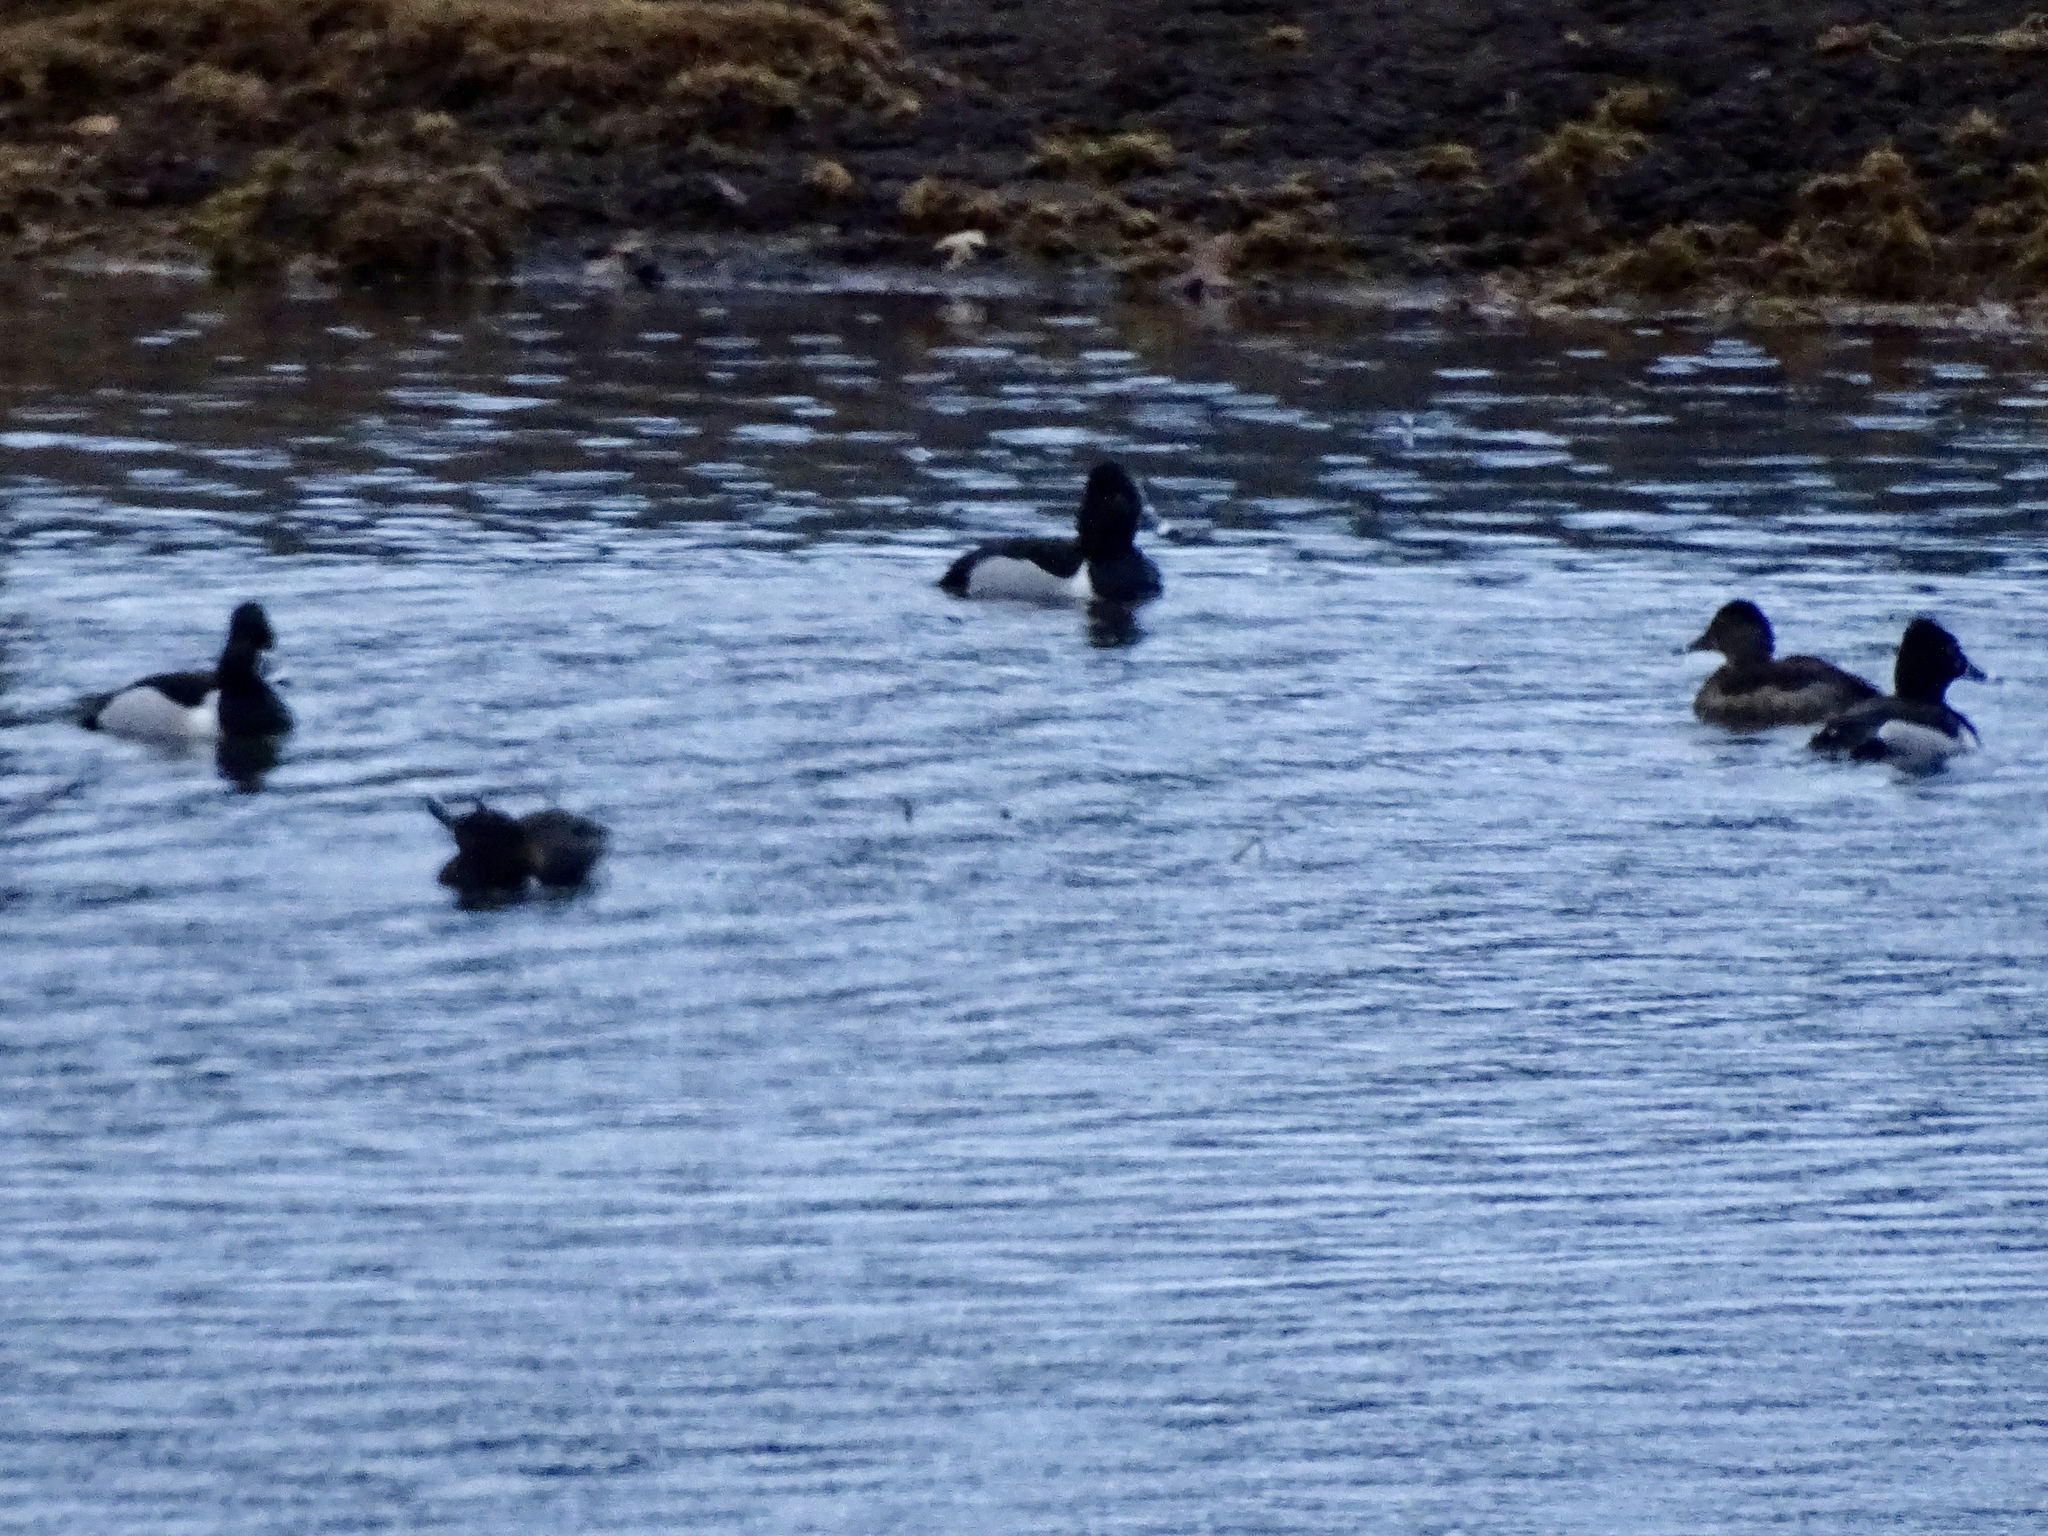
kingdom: Animalia
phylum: Chordata
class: Aves
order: Anseriformes
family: Anatidae
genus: Aythya
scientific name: Aythya collaris
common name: Ring-necked duck
